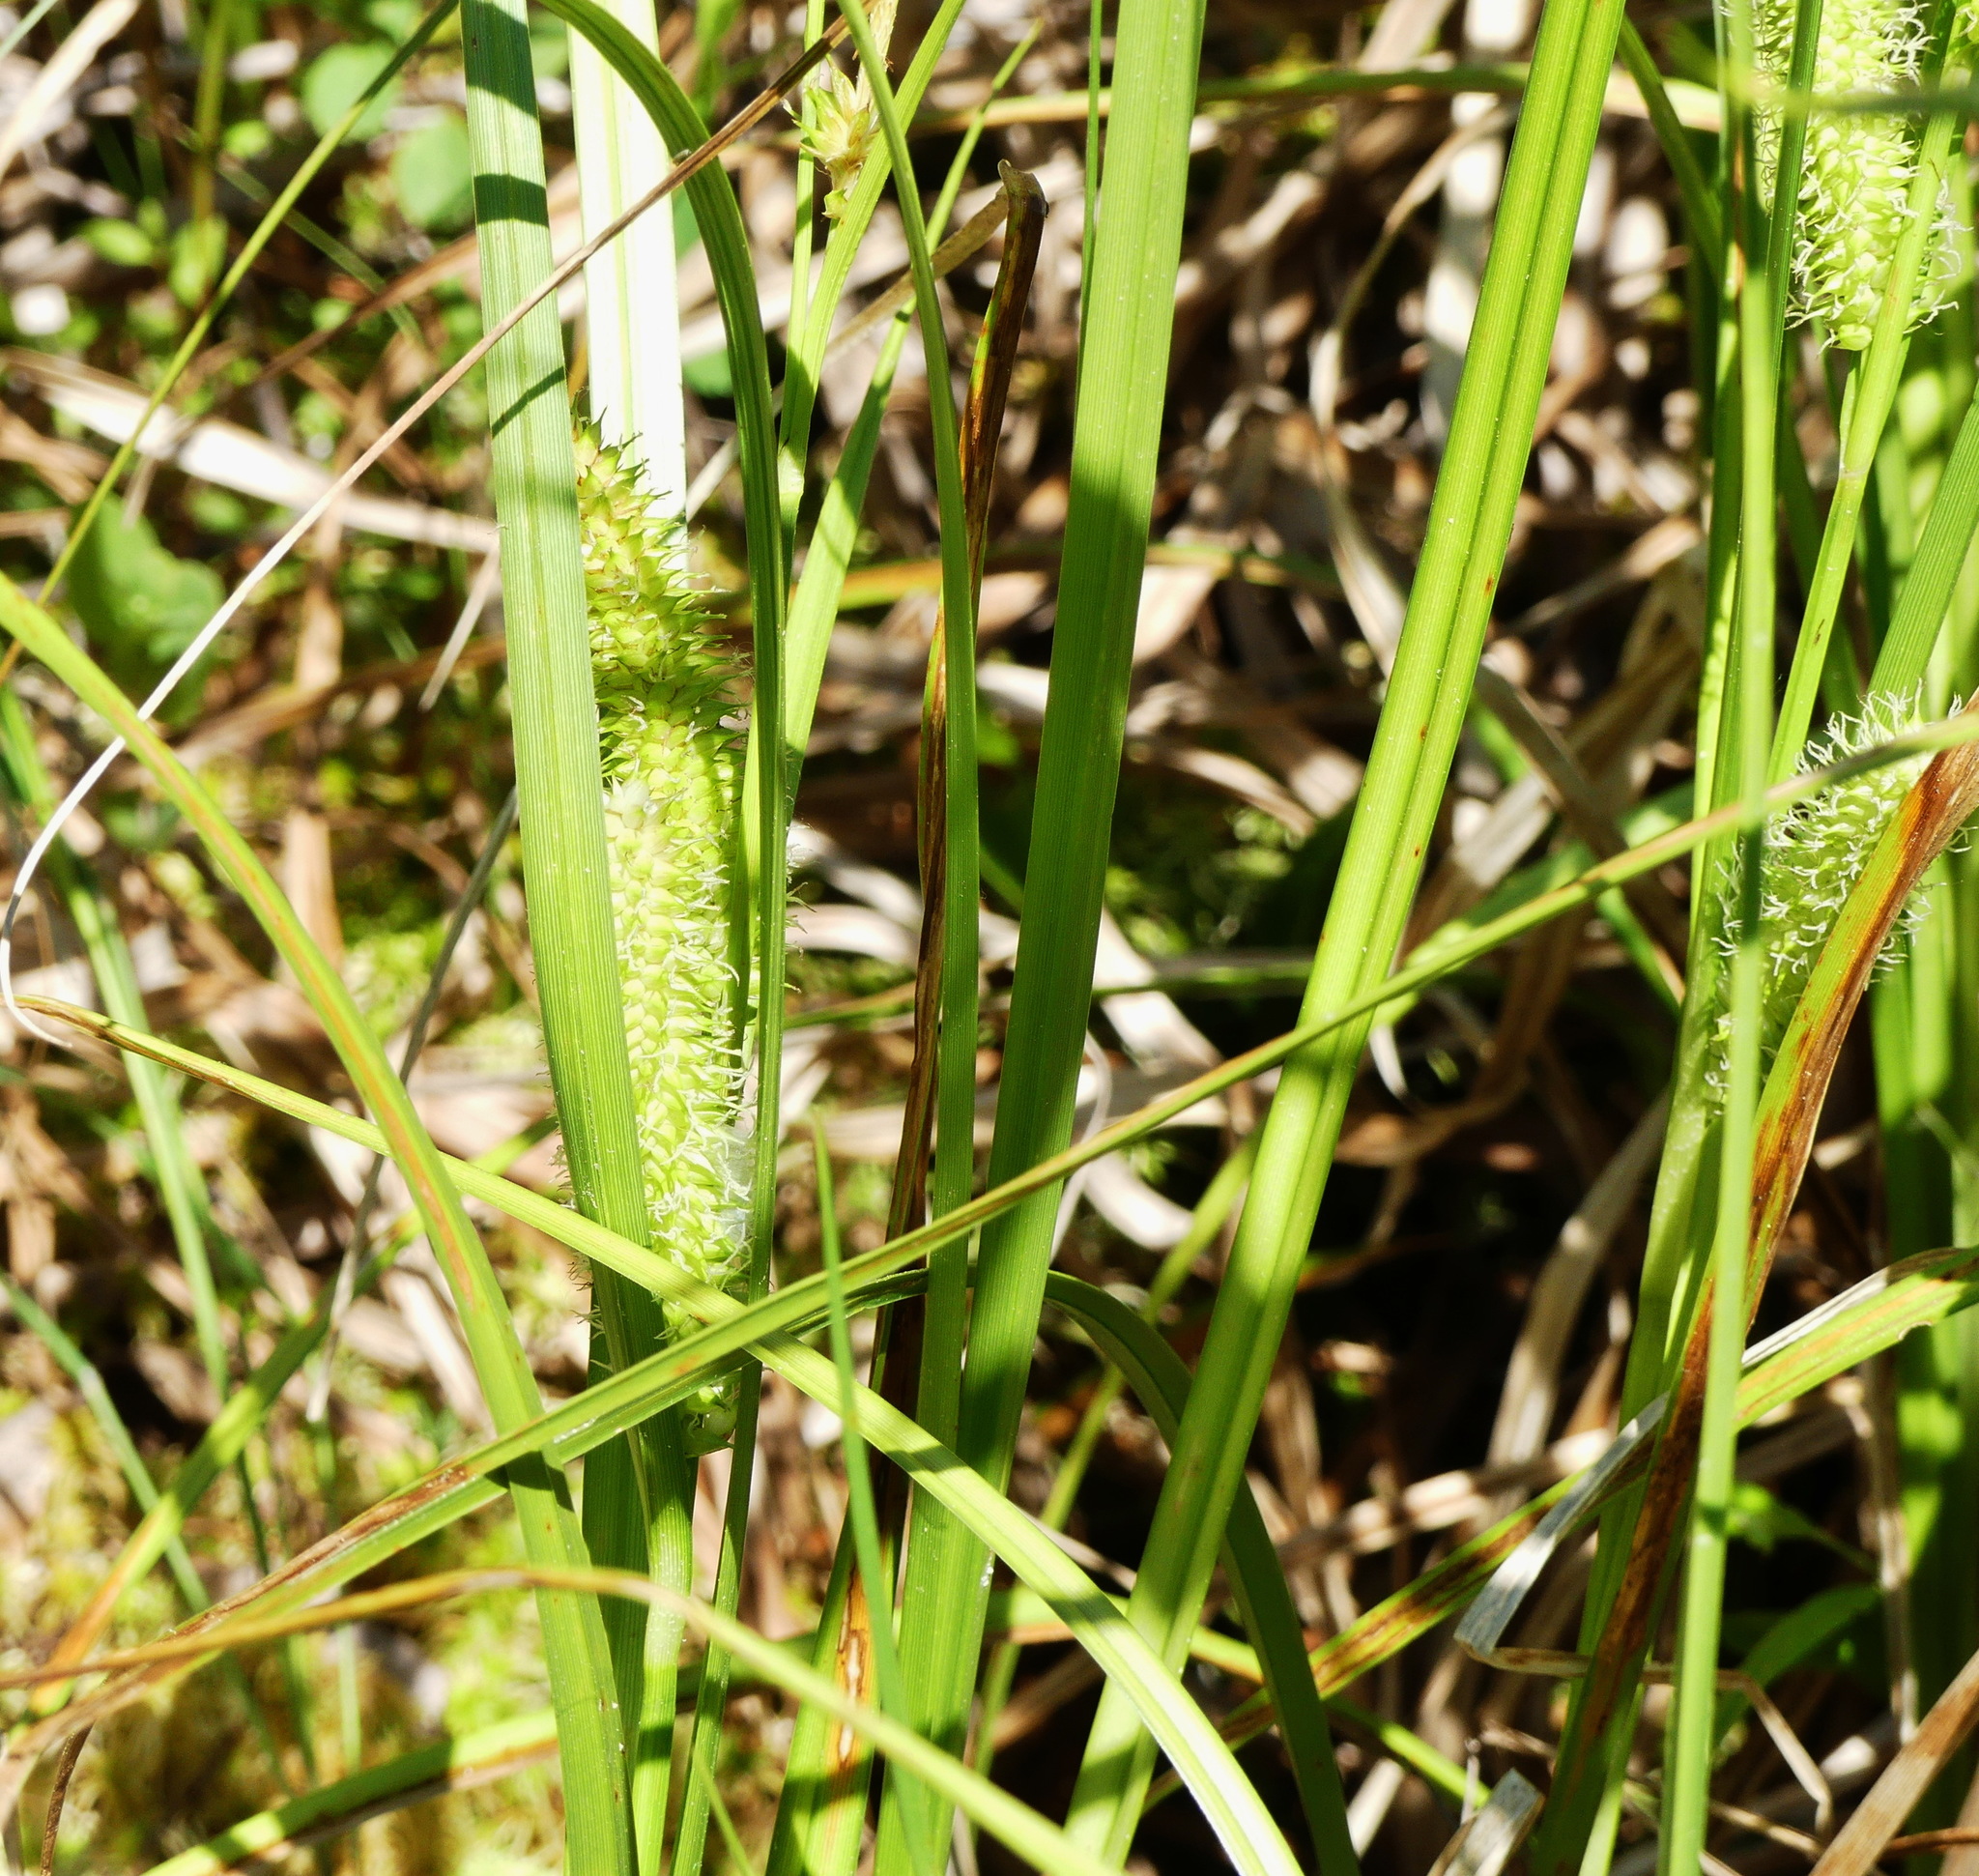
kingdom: Plantae
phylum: Tracheophyta
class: Liliopsida
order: Poales
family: Cyperaceae
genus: Carex
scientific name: Carex utriculata
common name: Beaked sedge
